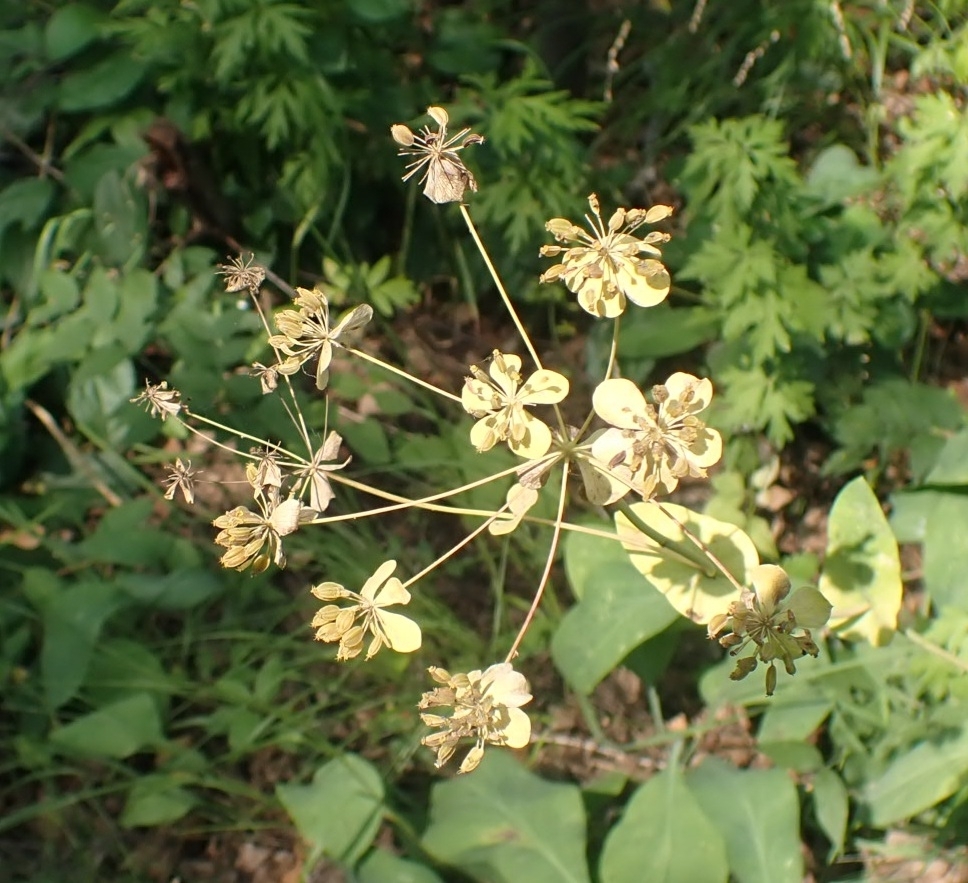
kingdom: Plantae
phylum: Tracheophyta
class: Magnoliopsida
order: Apiales
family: Apiaceae
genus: Bupleurum
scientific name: Bupleurum aureum
